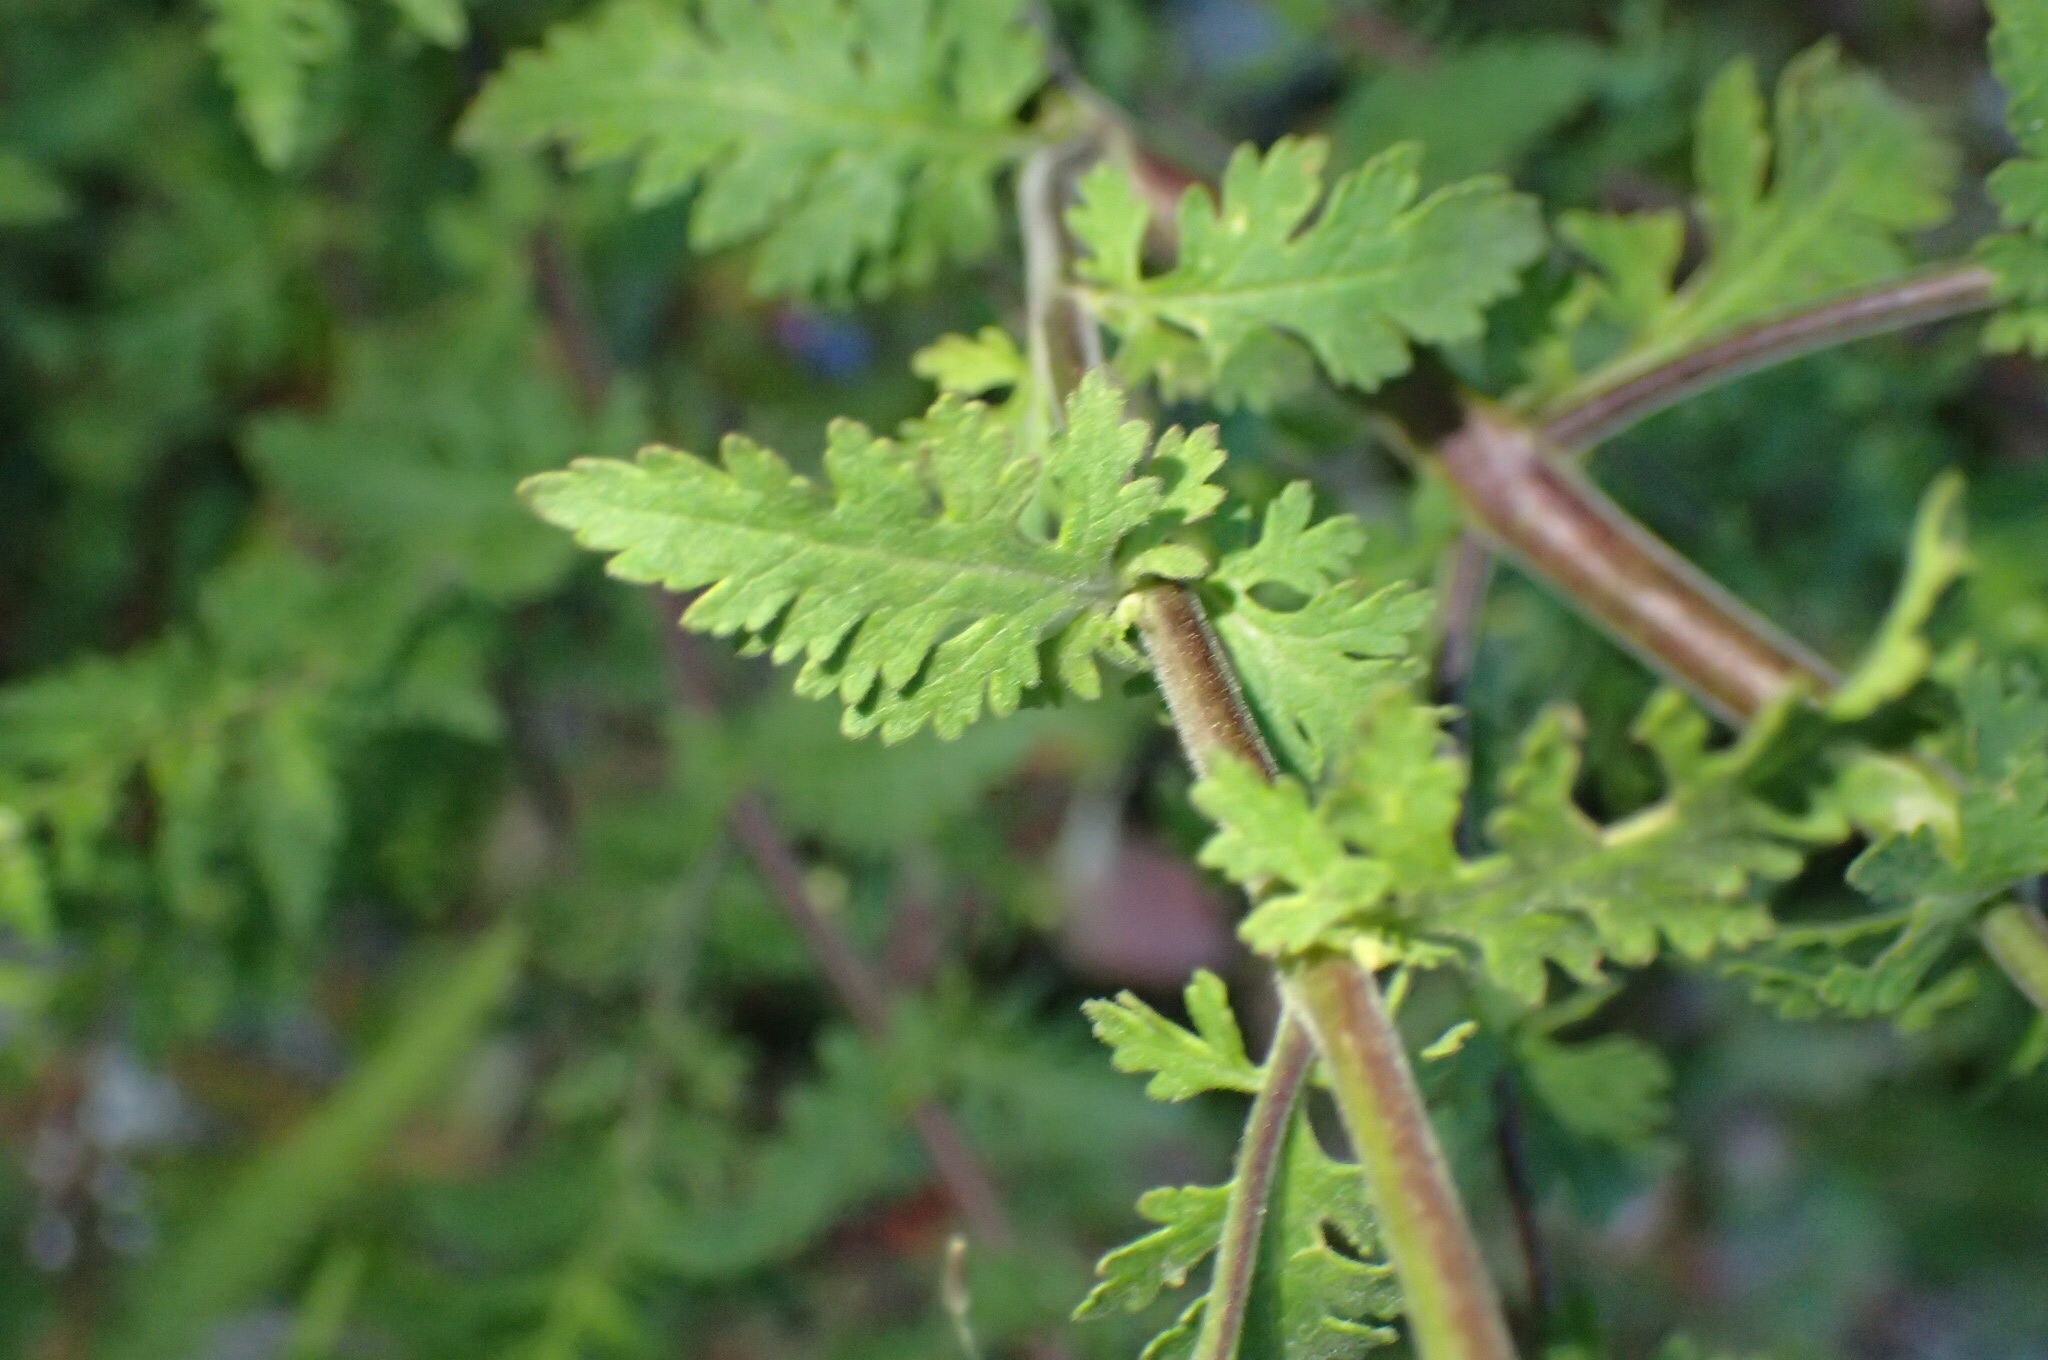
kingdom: Plantae
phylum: Tracheophyta
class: Magnoliopsida
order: Lamiales
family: Orobanchaceae
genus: Aureolaria
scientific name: Aureolaria pedicularia
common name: Annual false foxglove
